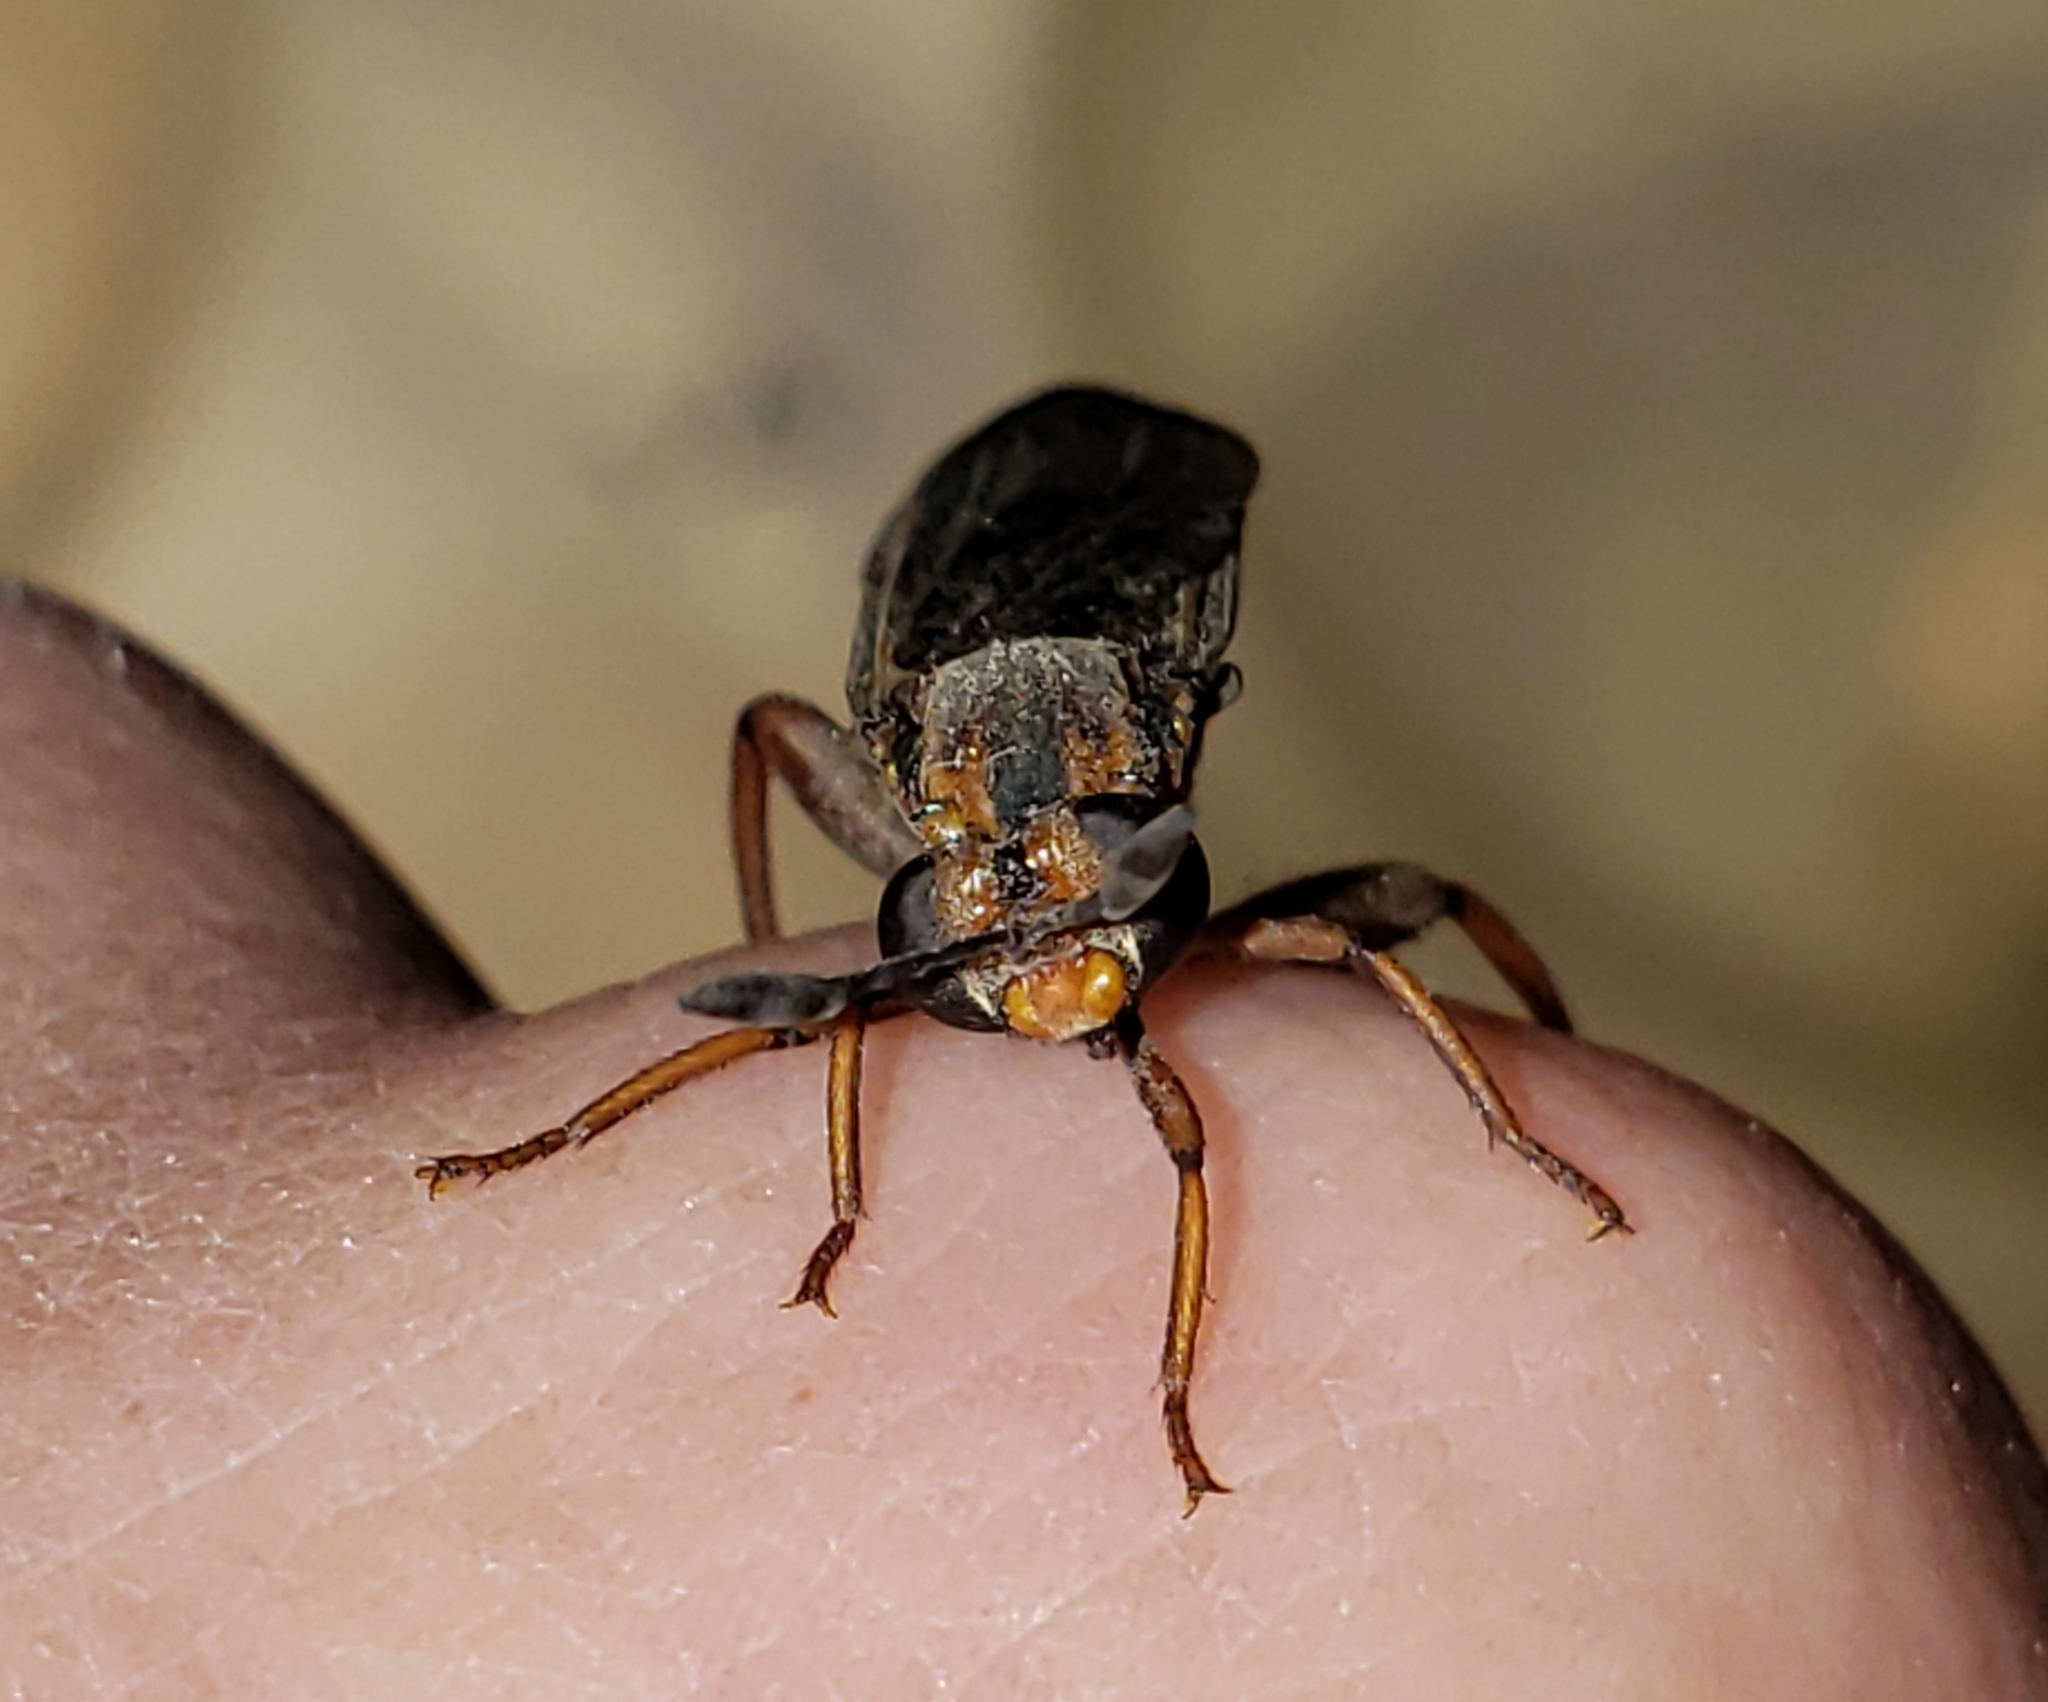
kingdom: Animalia
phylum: Arthropoda
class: Insecta
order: Diptera
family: Mydidae
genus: Phyllomydas
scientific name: Phyllomydas parvulus
